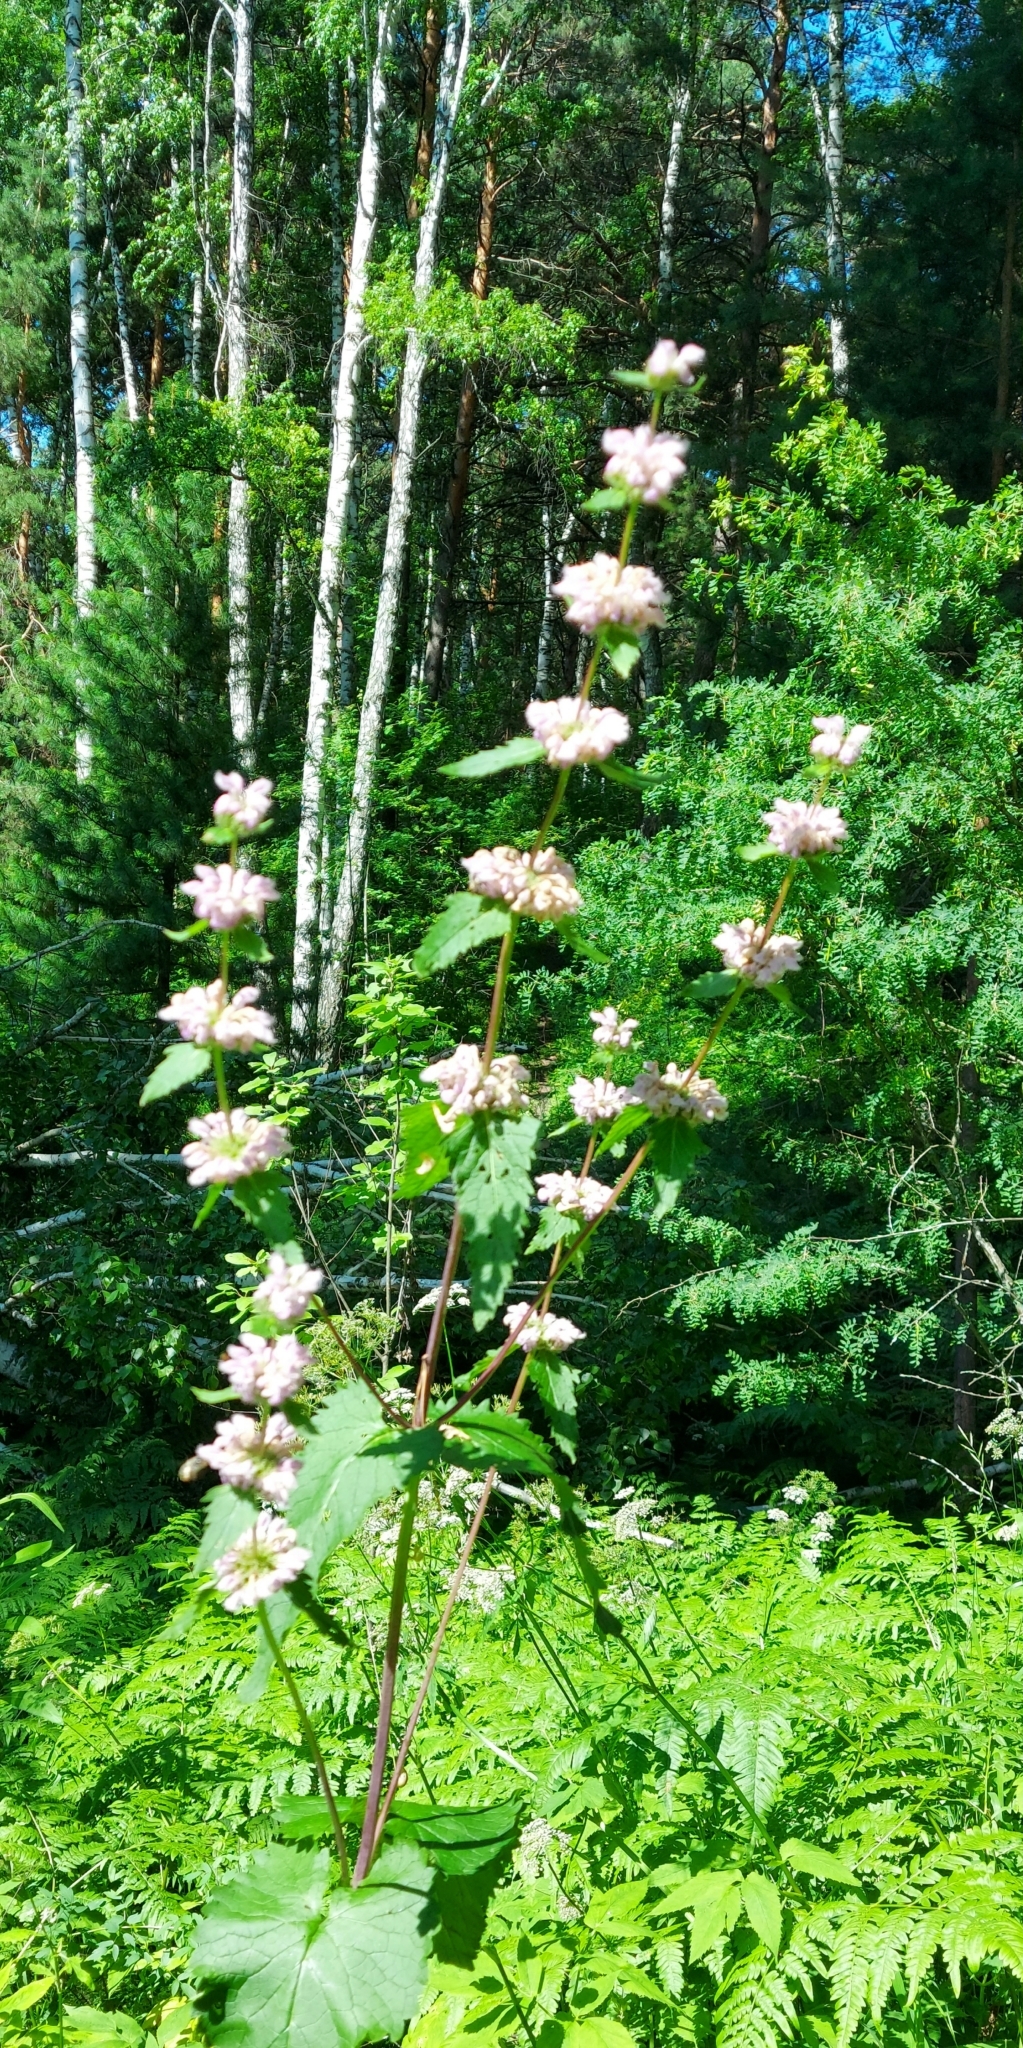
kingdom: Plantae
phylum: Tracheophyta
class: Magnoliopsida
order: Lamiales
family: Lamiaceae
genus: Phlomoides
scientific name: Phlomoides tuberosa
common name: Tuberous jerusalem sage
